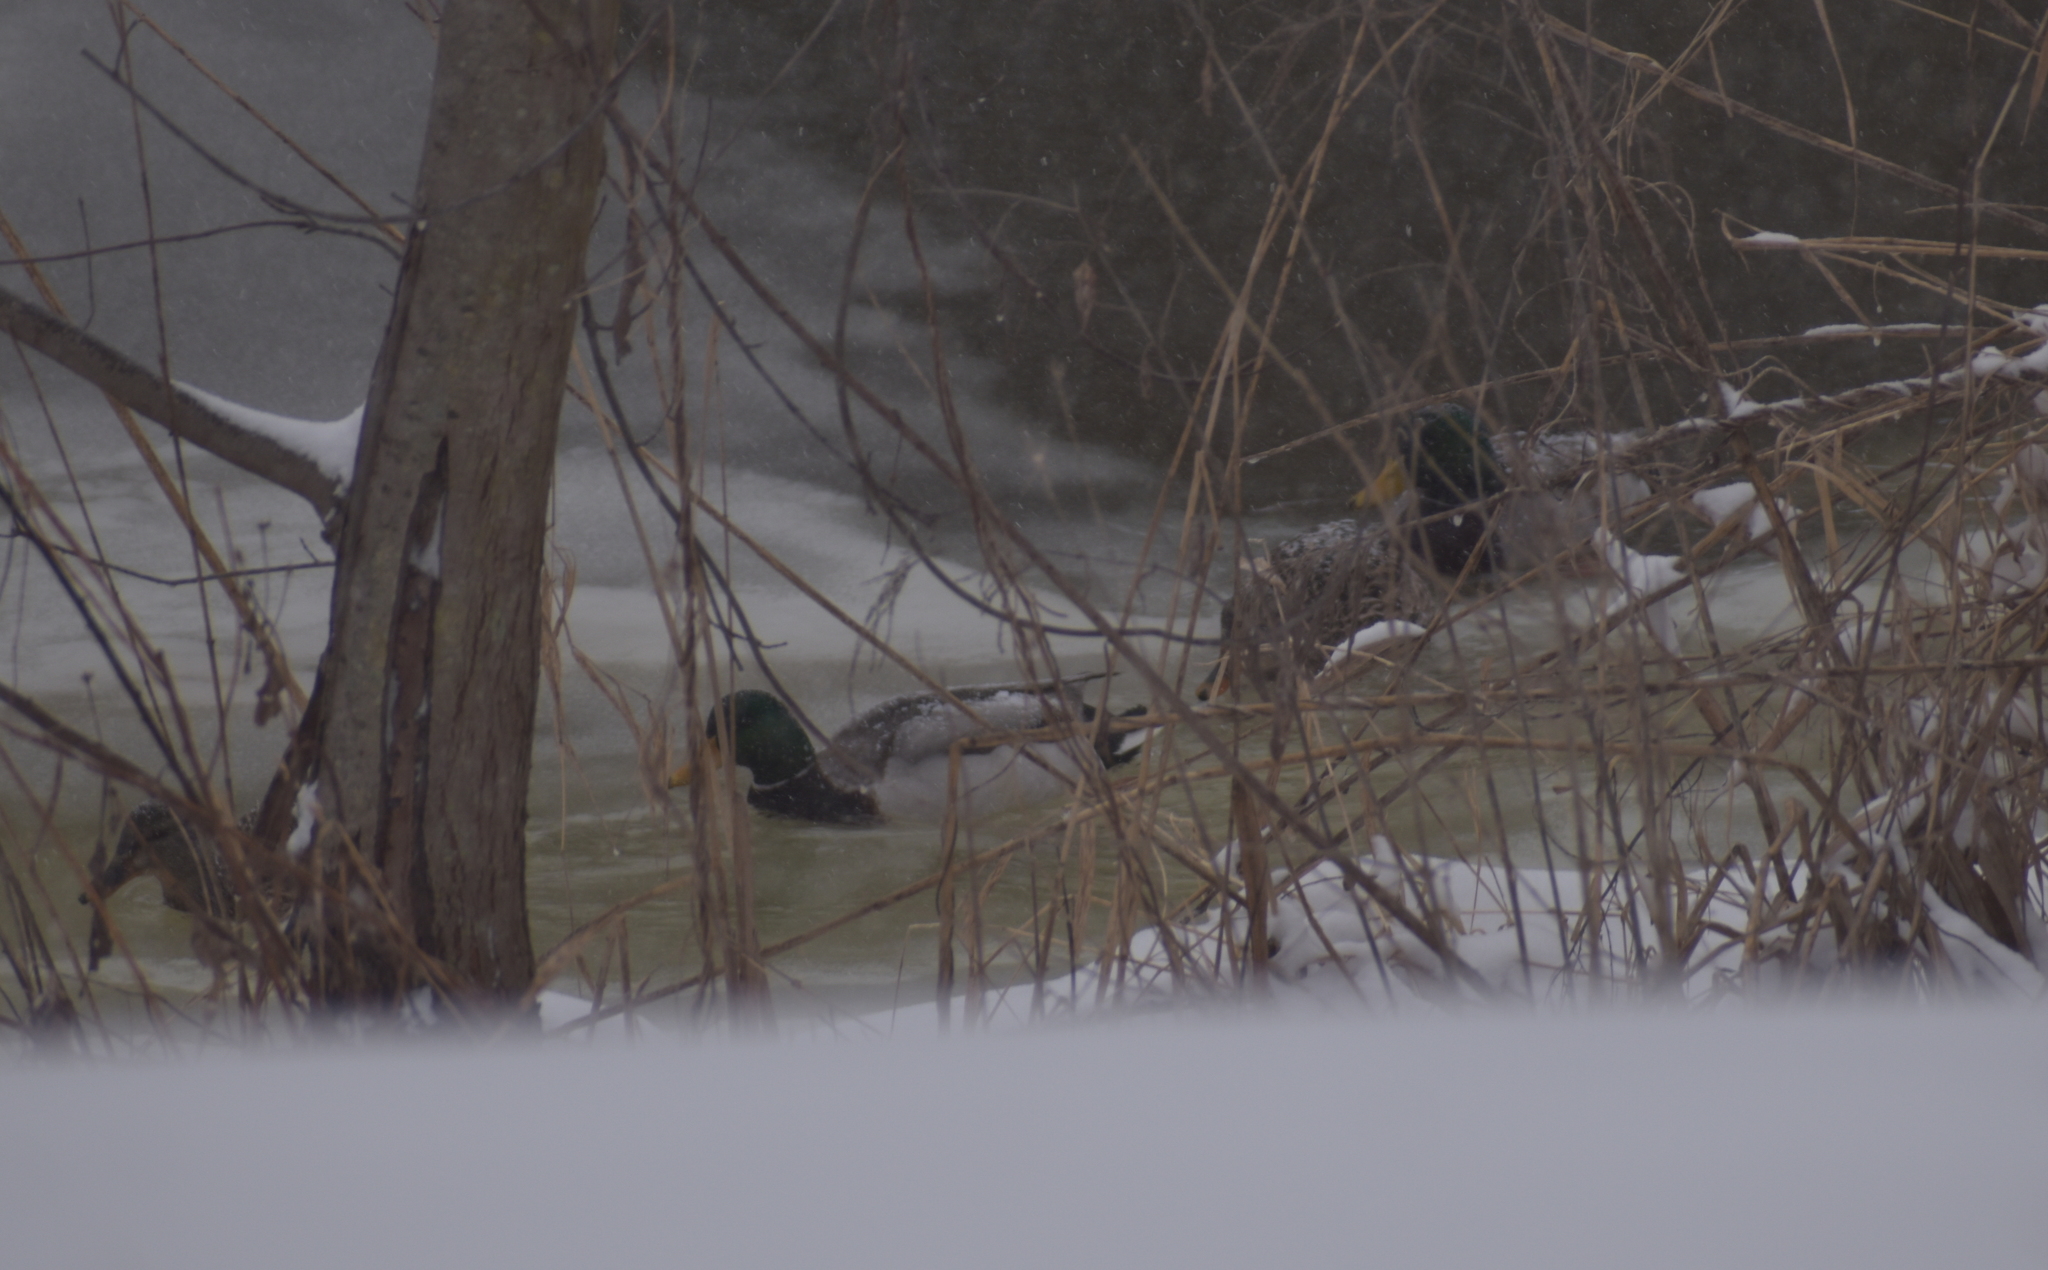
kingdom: Animalia
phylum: Chordata
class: Aves
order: Anseriformes
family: Anatidae
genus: Anas
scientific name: Anas platyrhynchos
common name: Mallard
